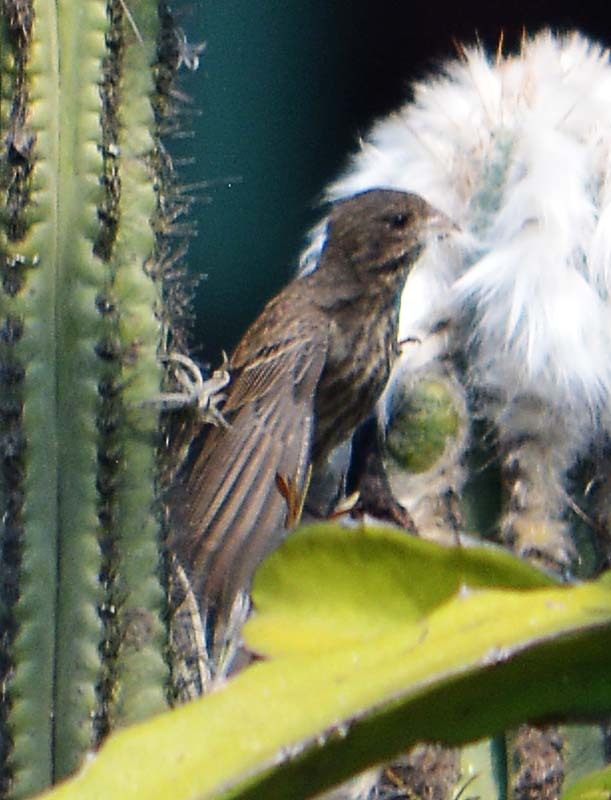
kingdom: Animalia
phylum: Chordata
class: Aves
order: Passeriformes
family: Fringillidae
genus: Haemorhous
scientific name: Haemorhous mexicanus
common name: House finch
